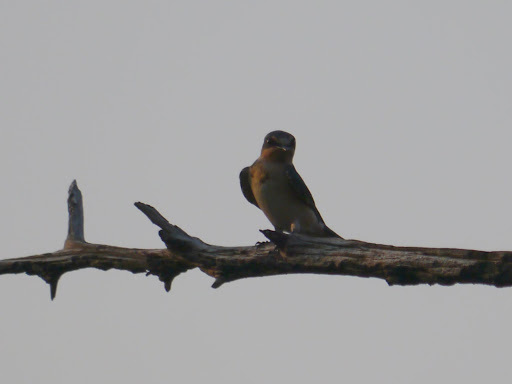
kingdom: Animalia
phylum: Chordata
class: Aves
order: Passeriformes
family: Hirundinidae
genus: Hirundo
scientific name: Hirundo rustica
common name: Barn swallow
